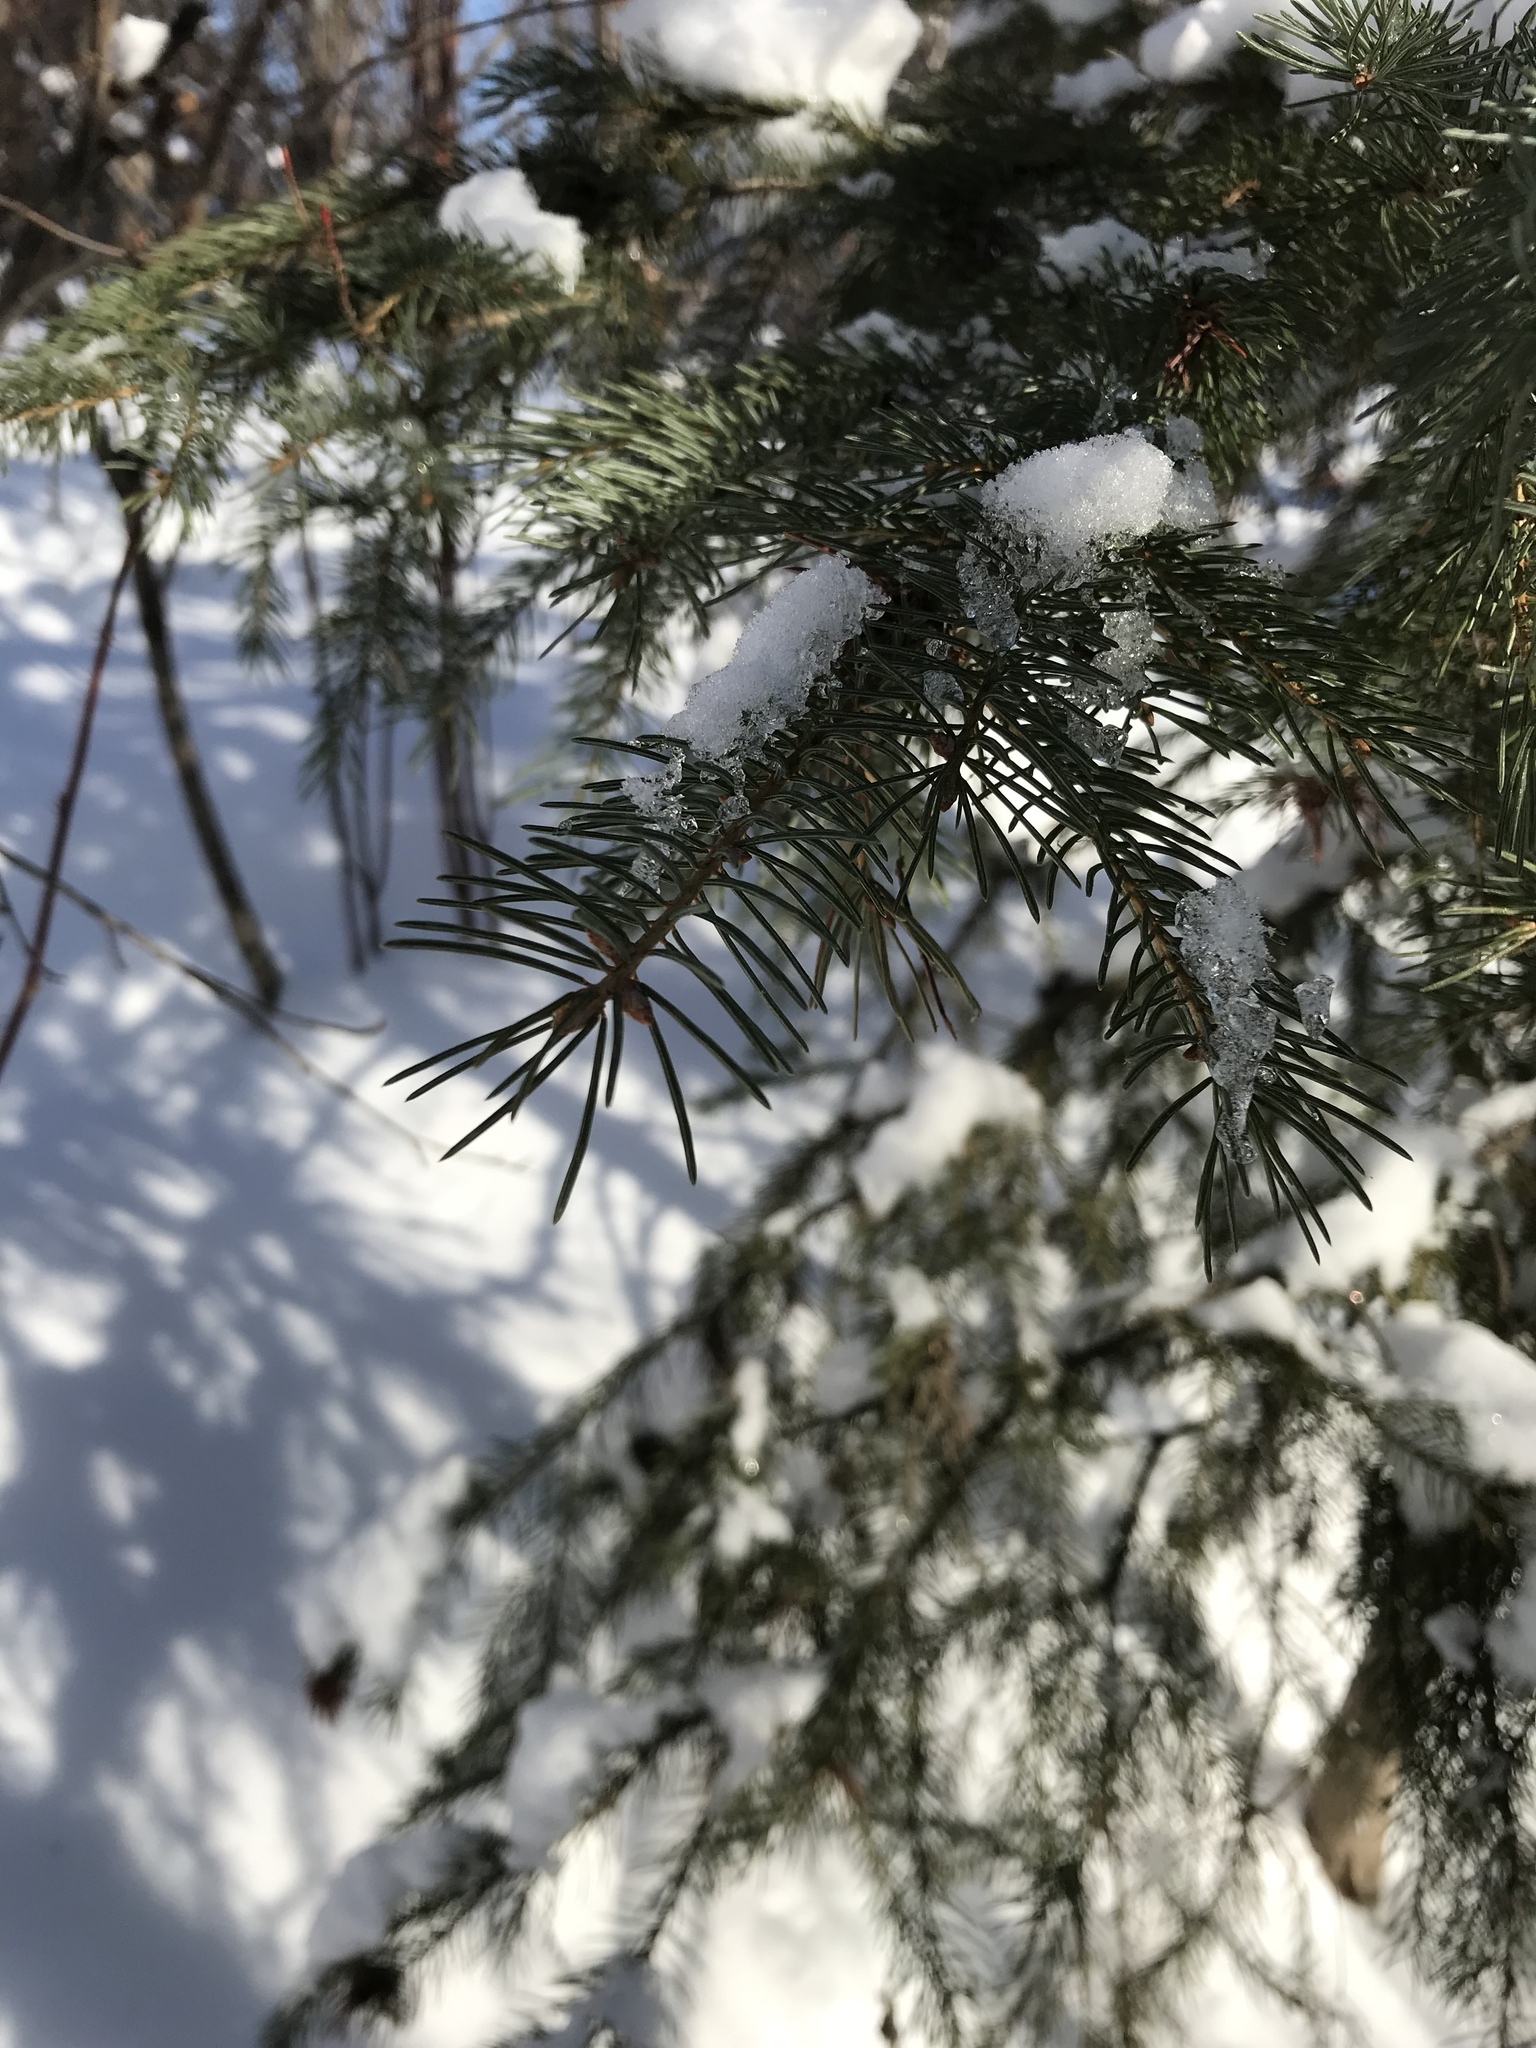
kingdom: Plantae
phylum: Tracheophyta
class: Pinopsida
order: Pinales
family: Pinaceae
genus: Picea
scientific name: Picea glauca
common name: White spruce
